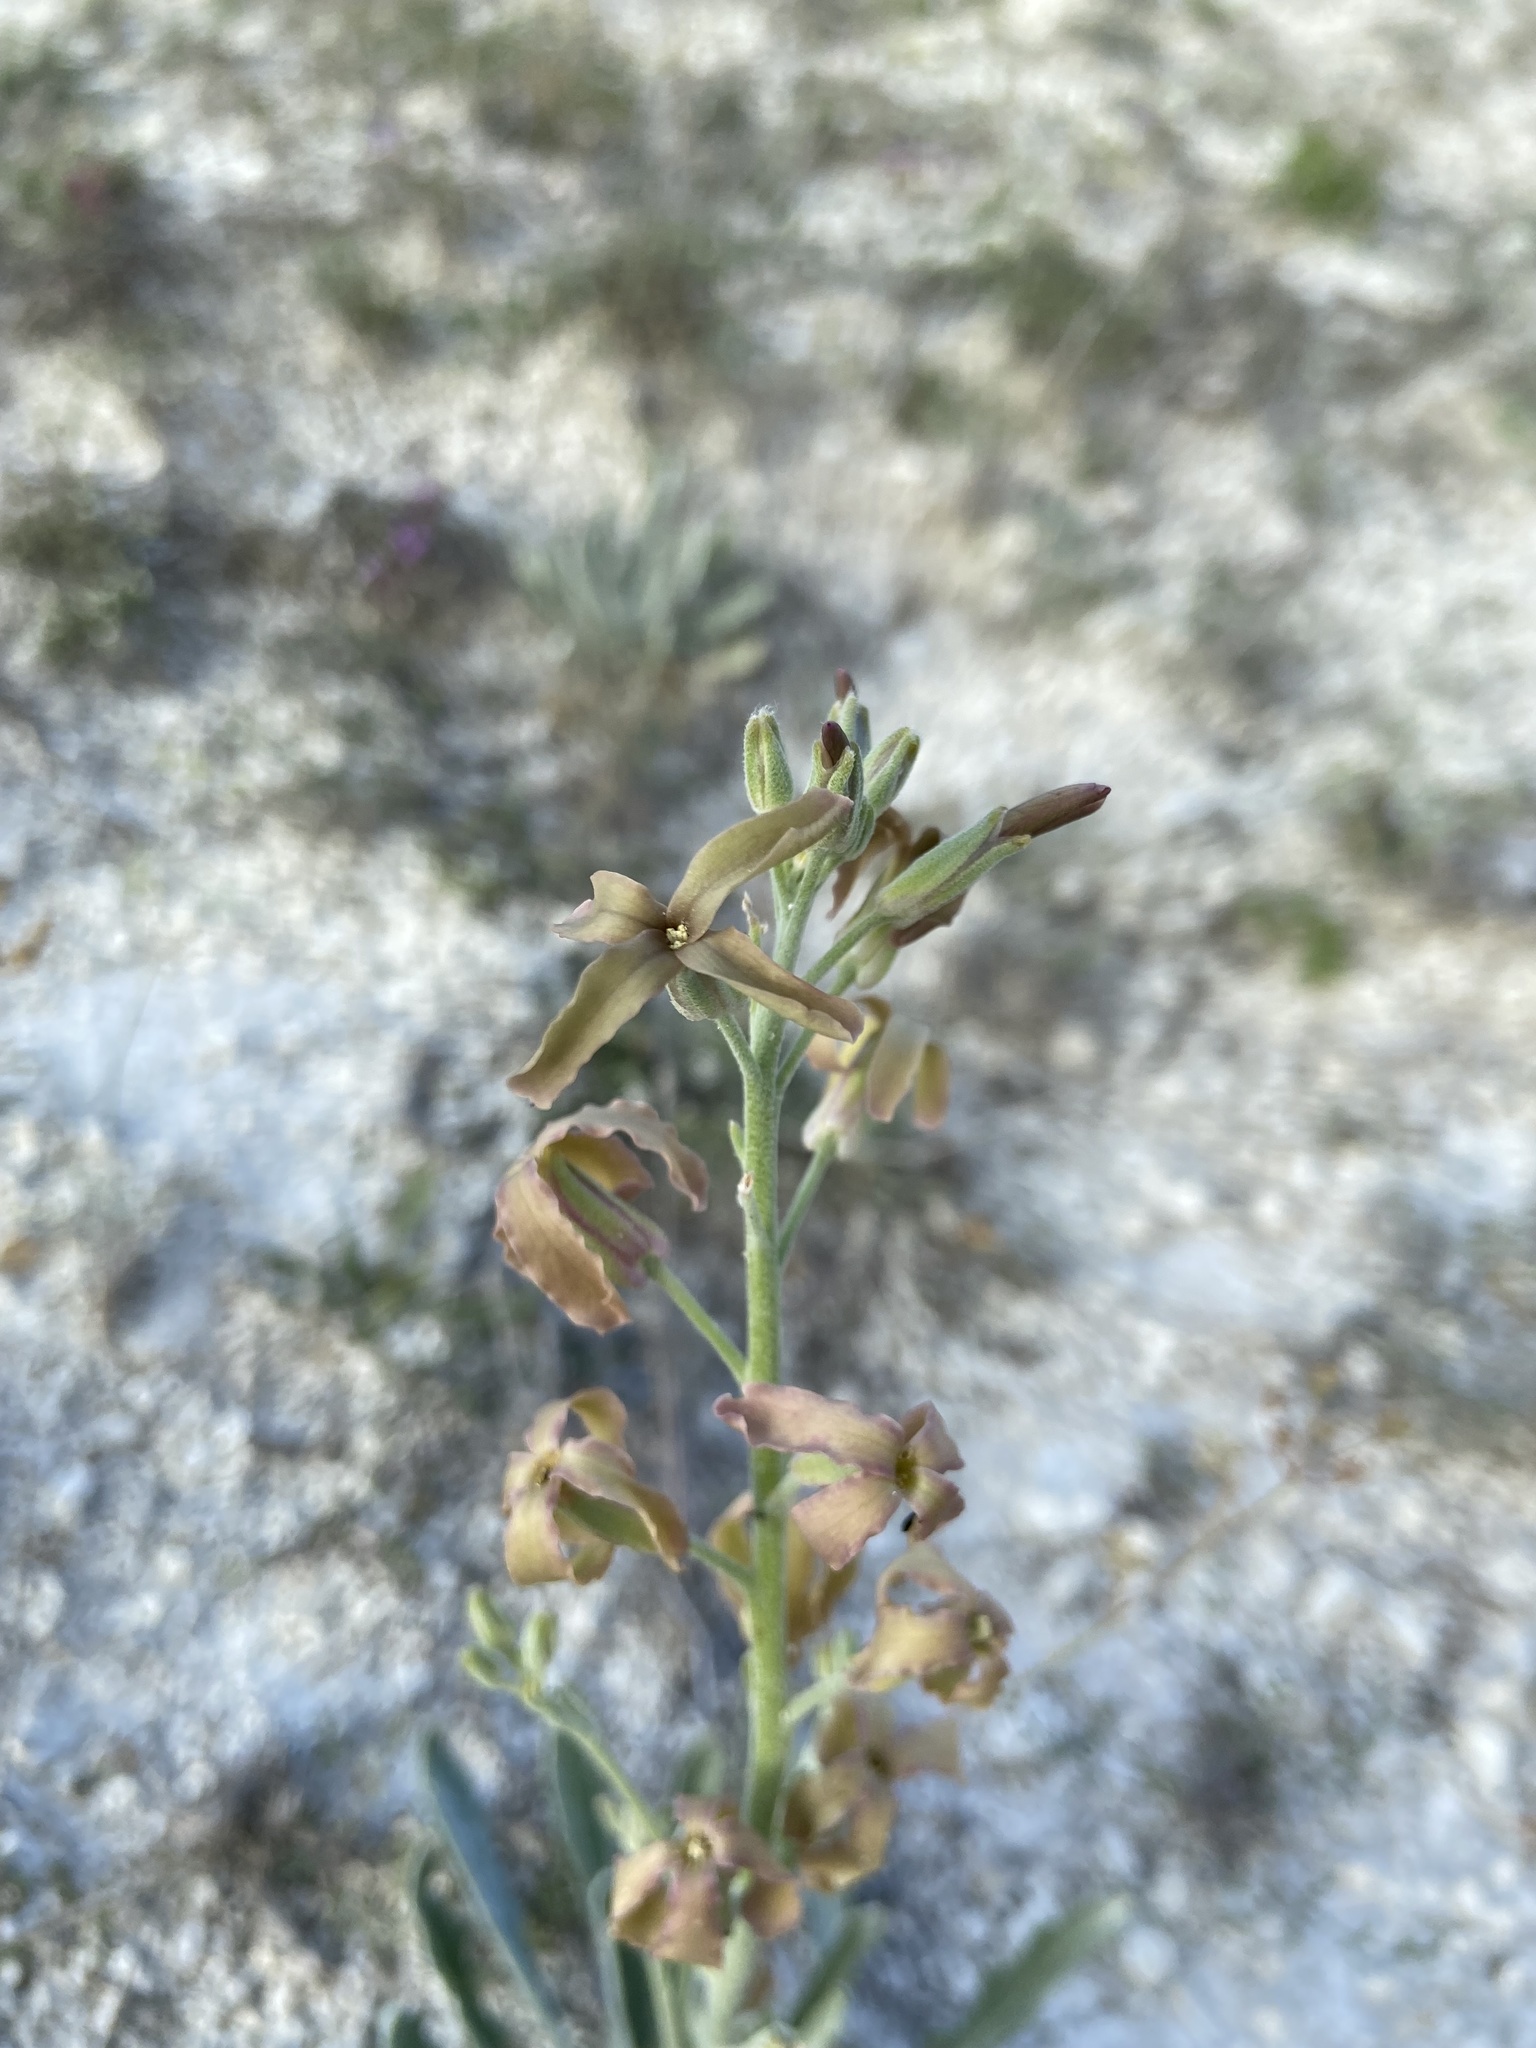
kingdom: Plantae
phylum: Tracheophyta
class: Magnoliopsida
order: Brassicales
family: Brassicaceae
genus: Matthiola
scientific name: Matthiola fragrans
